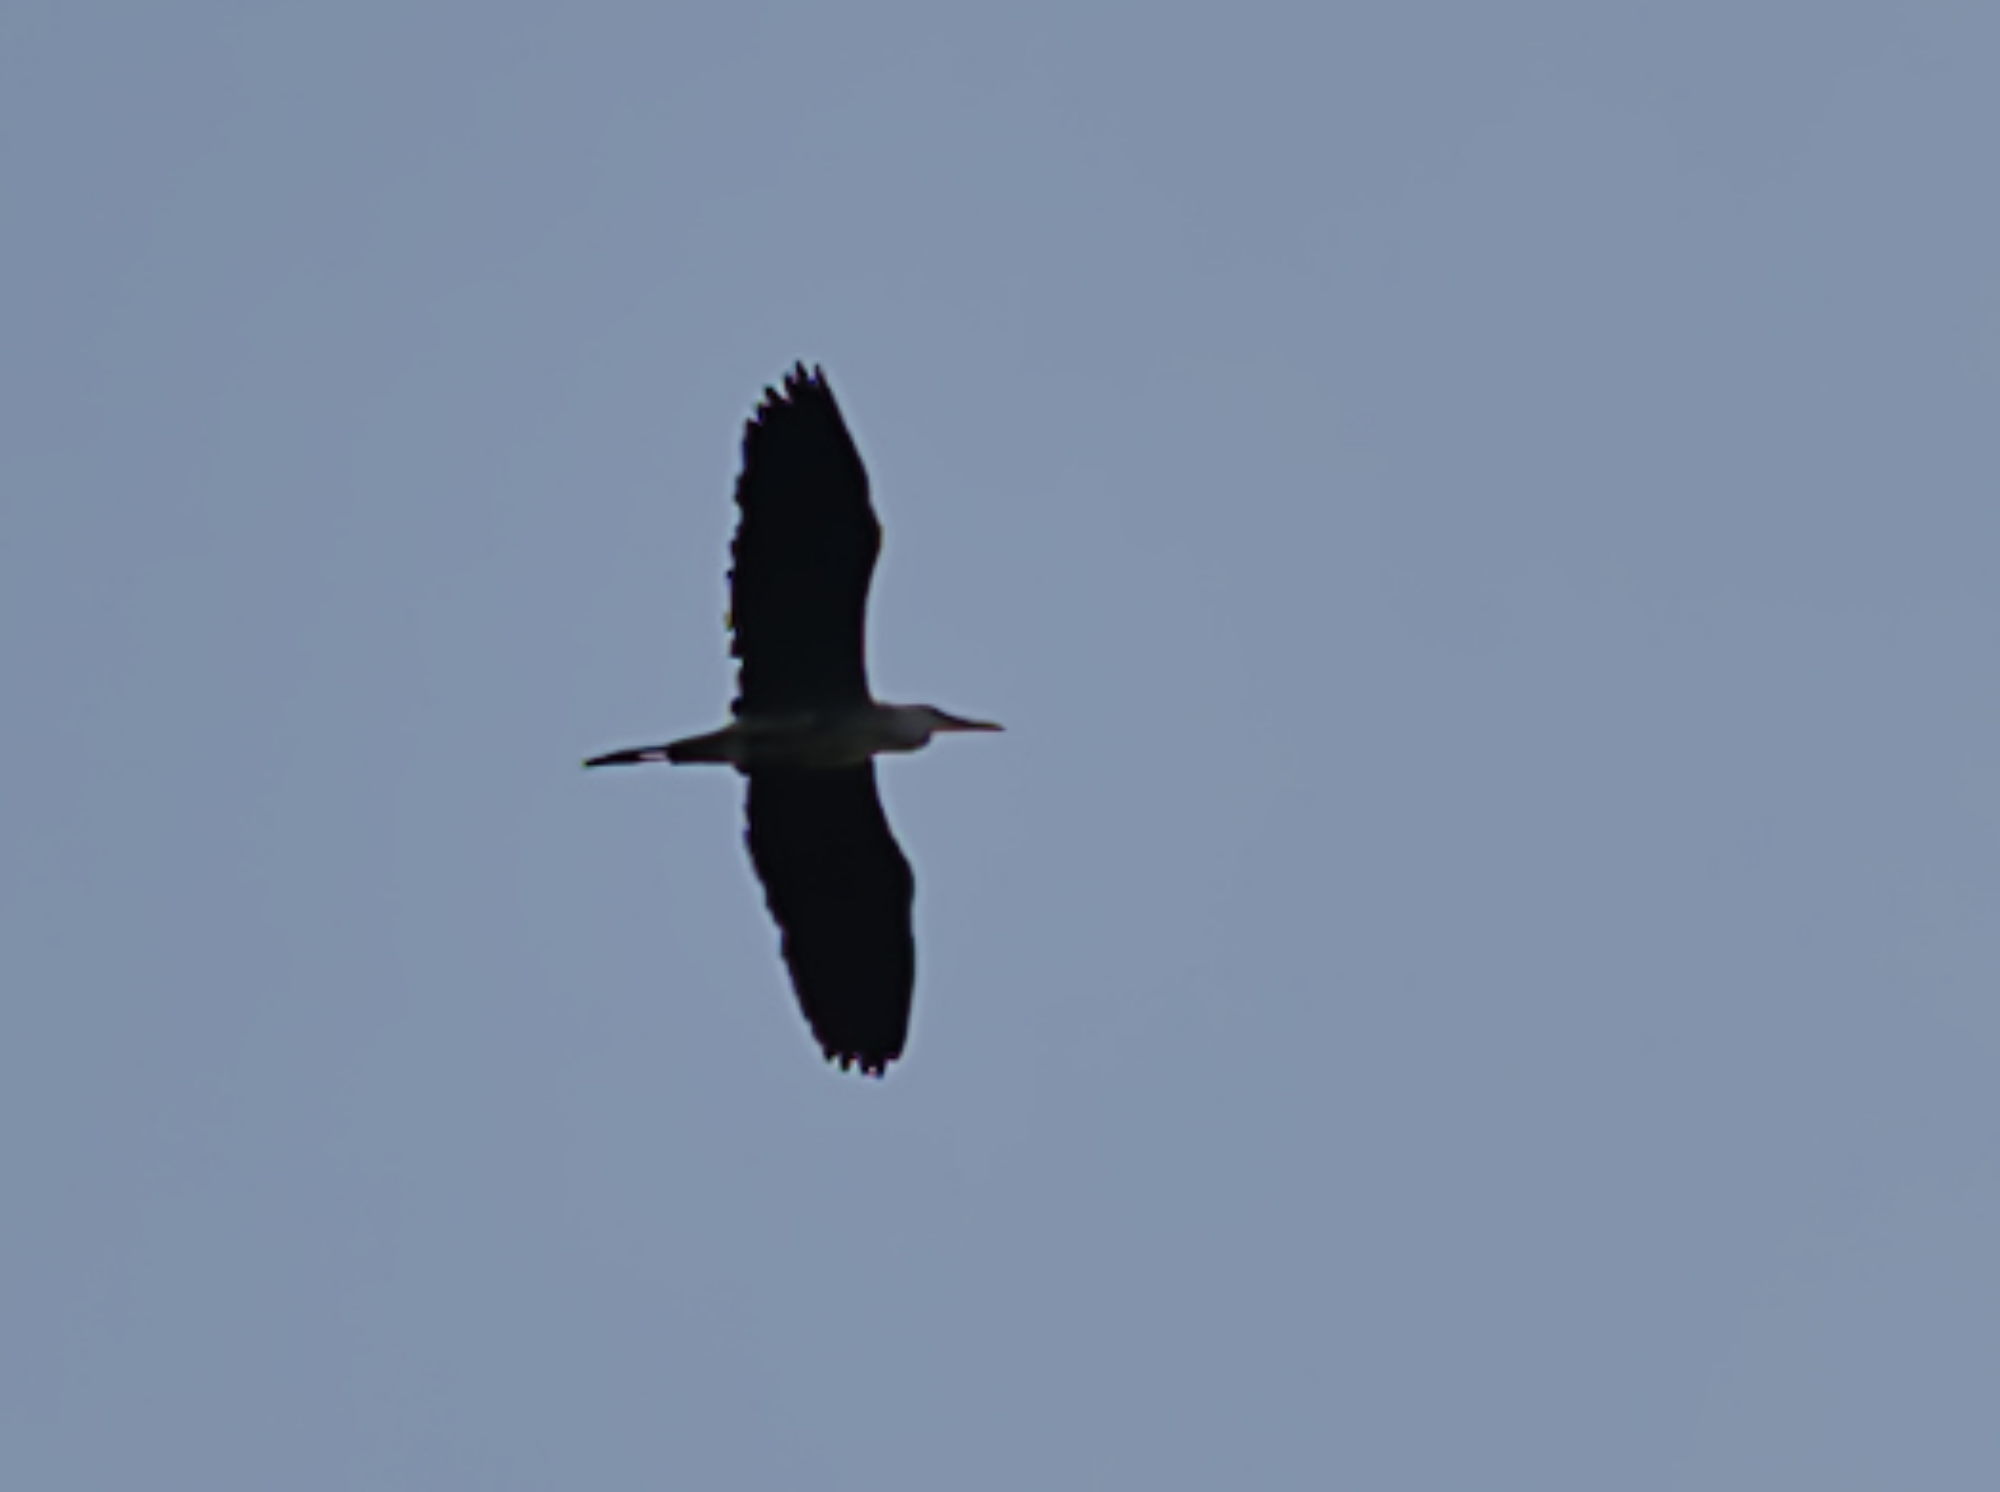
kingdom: Animalia
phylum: Chordata
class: Aves
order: Pelecaniformes
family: Ardeidae
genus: Ardea
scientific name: Ardea cinerea
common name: Grey heron
